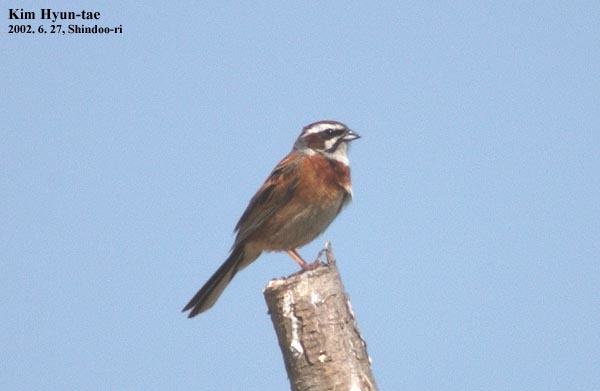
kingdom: Animalia
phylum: Chordata
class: Aves
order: Passeriformes
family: Emberizidae
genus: Emberiza
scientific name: Emberiza cioides
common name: Meadow bunting
